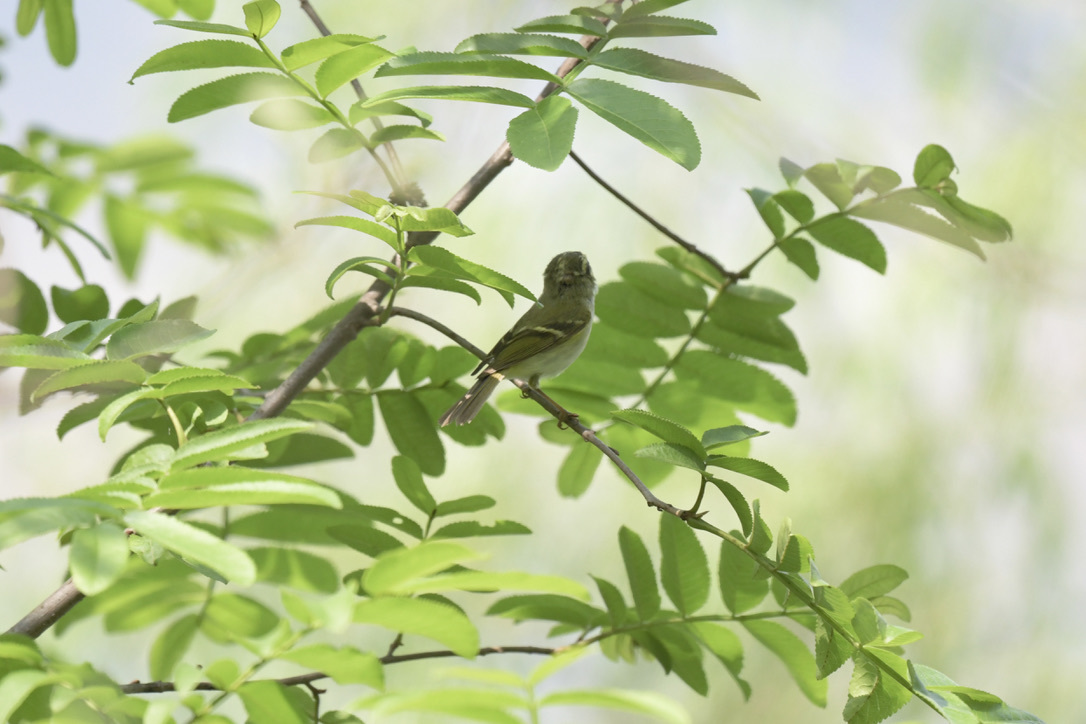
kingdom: Animalia
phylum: Chordata
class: Aves
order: Passeriformes
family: Phylloscopidae
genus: Phylloscopus
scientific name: Phylloscopus proregulus
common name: Pallas's leaf warbler
